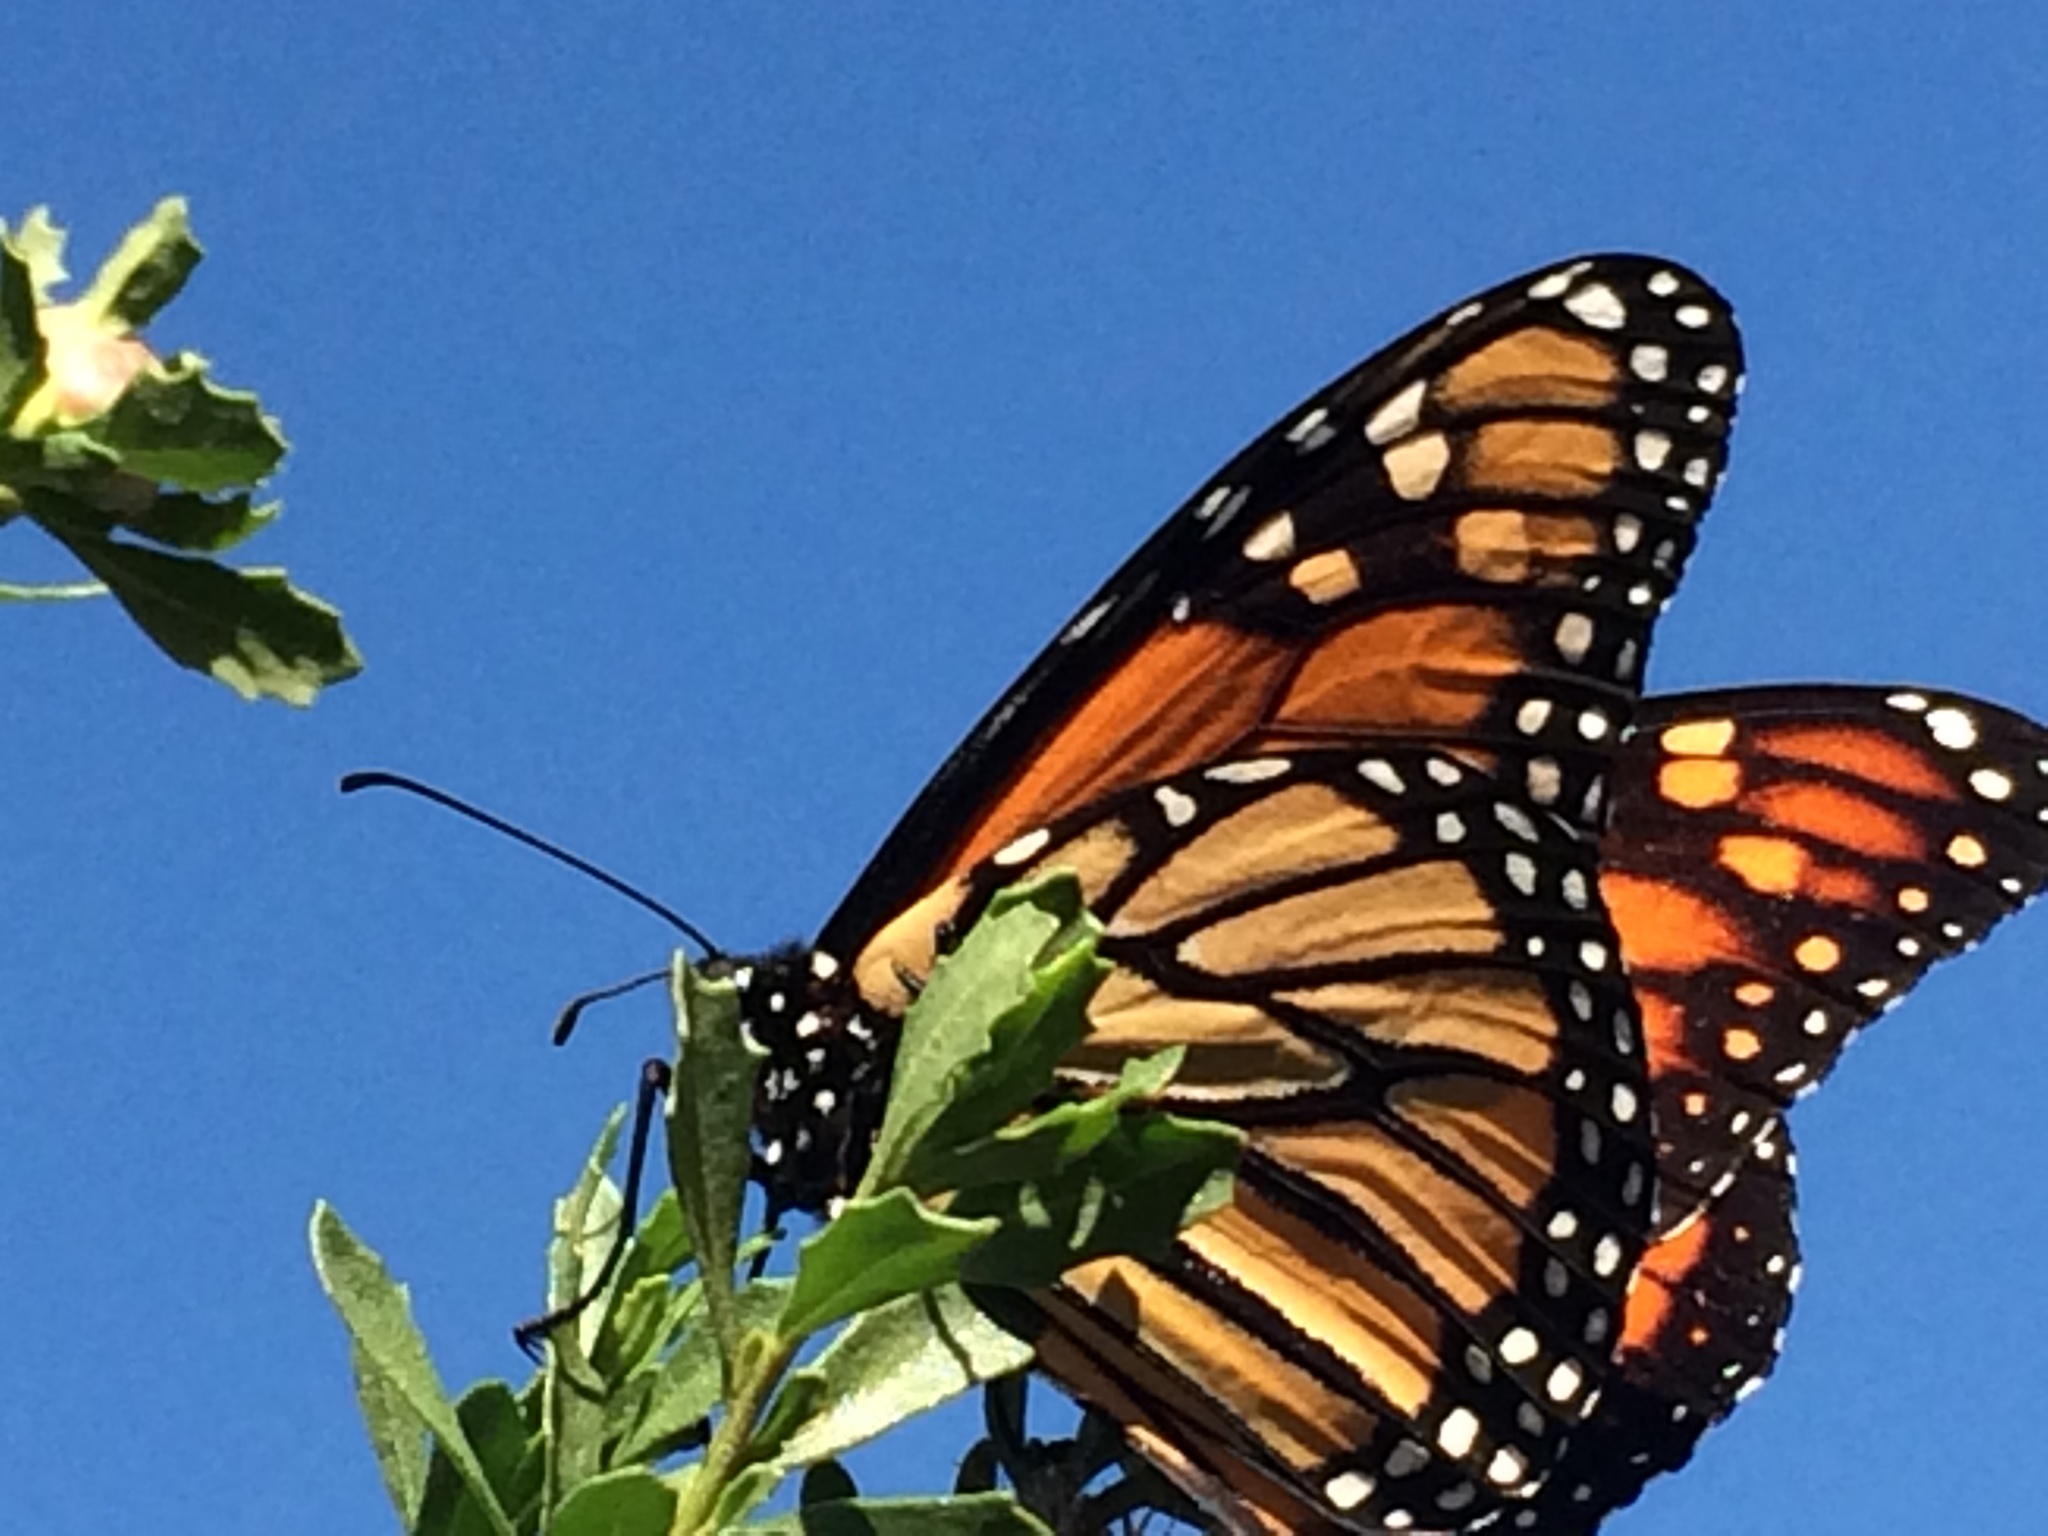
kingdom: Animalia
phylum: Arthropoda
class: Insecta
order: Lepidoptera
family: Nymphalidae
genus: Danaus
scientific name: Danaus plexippus
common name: Monarch
